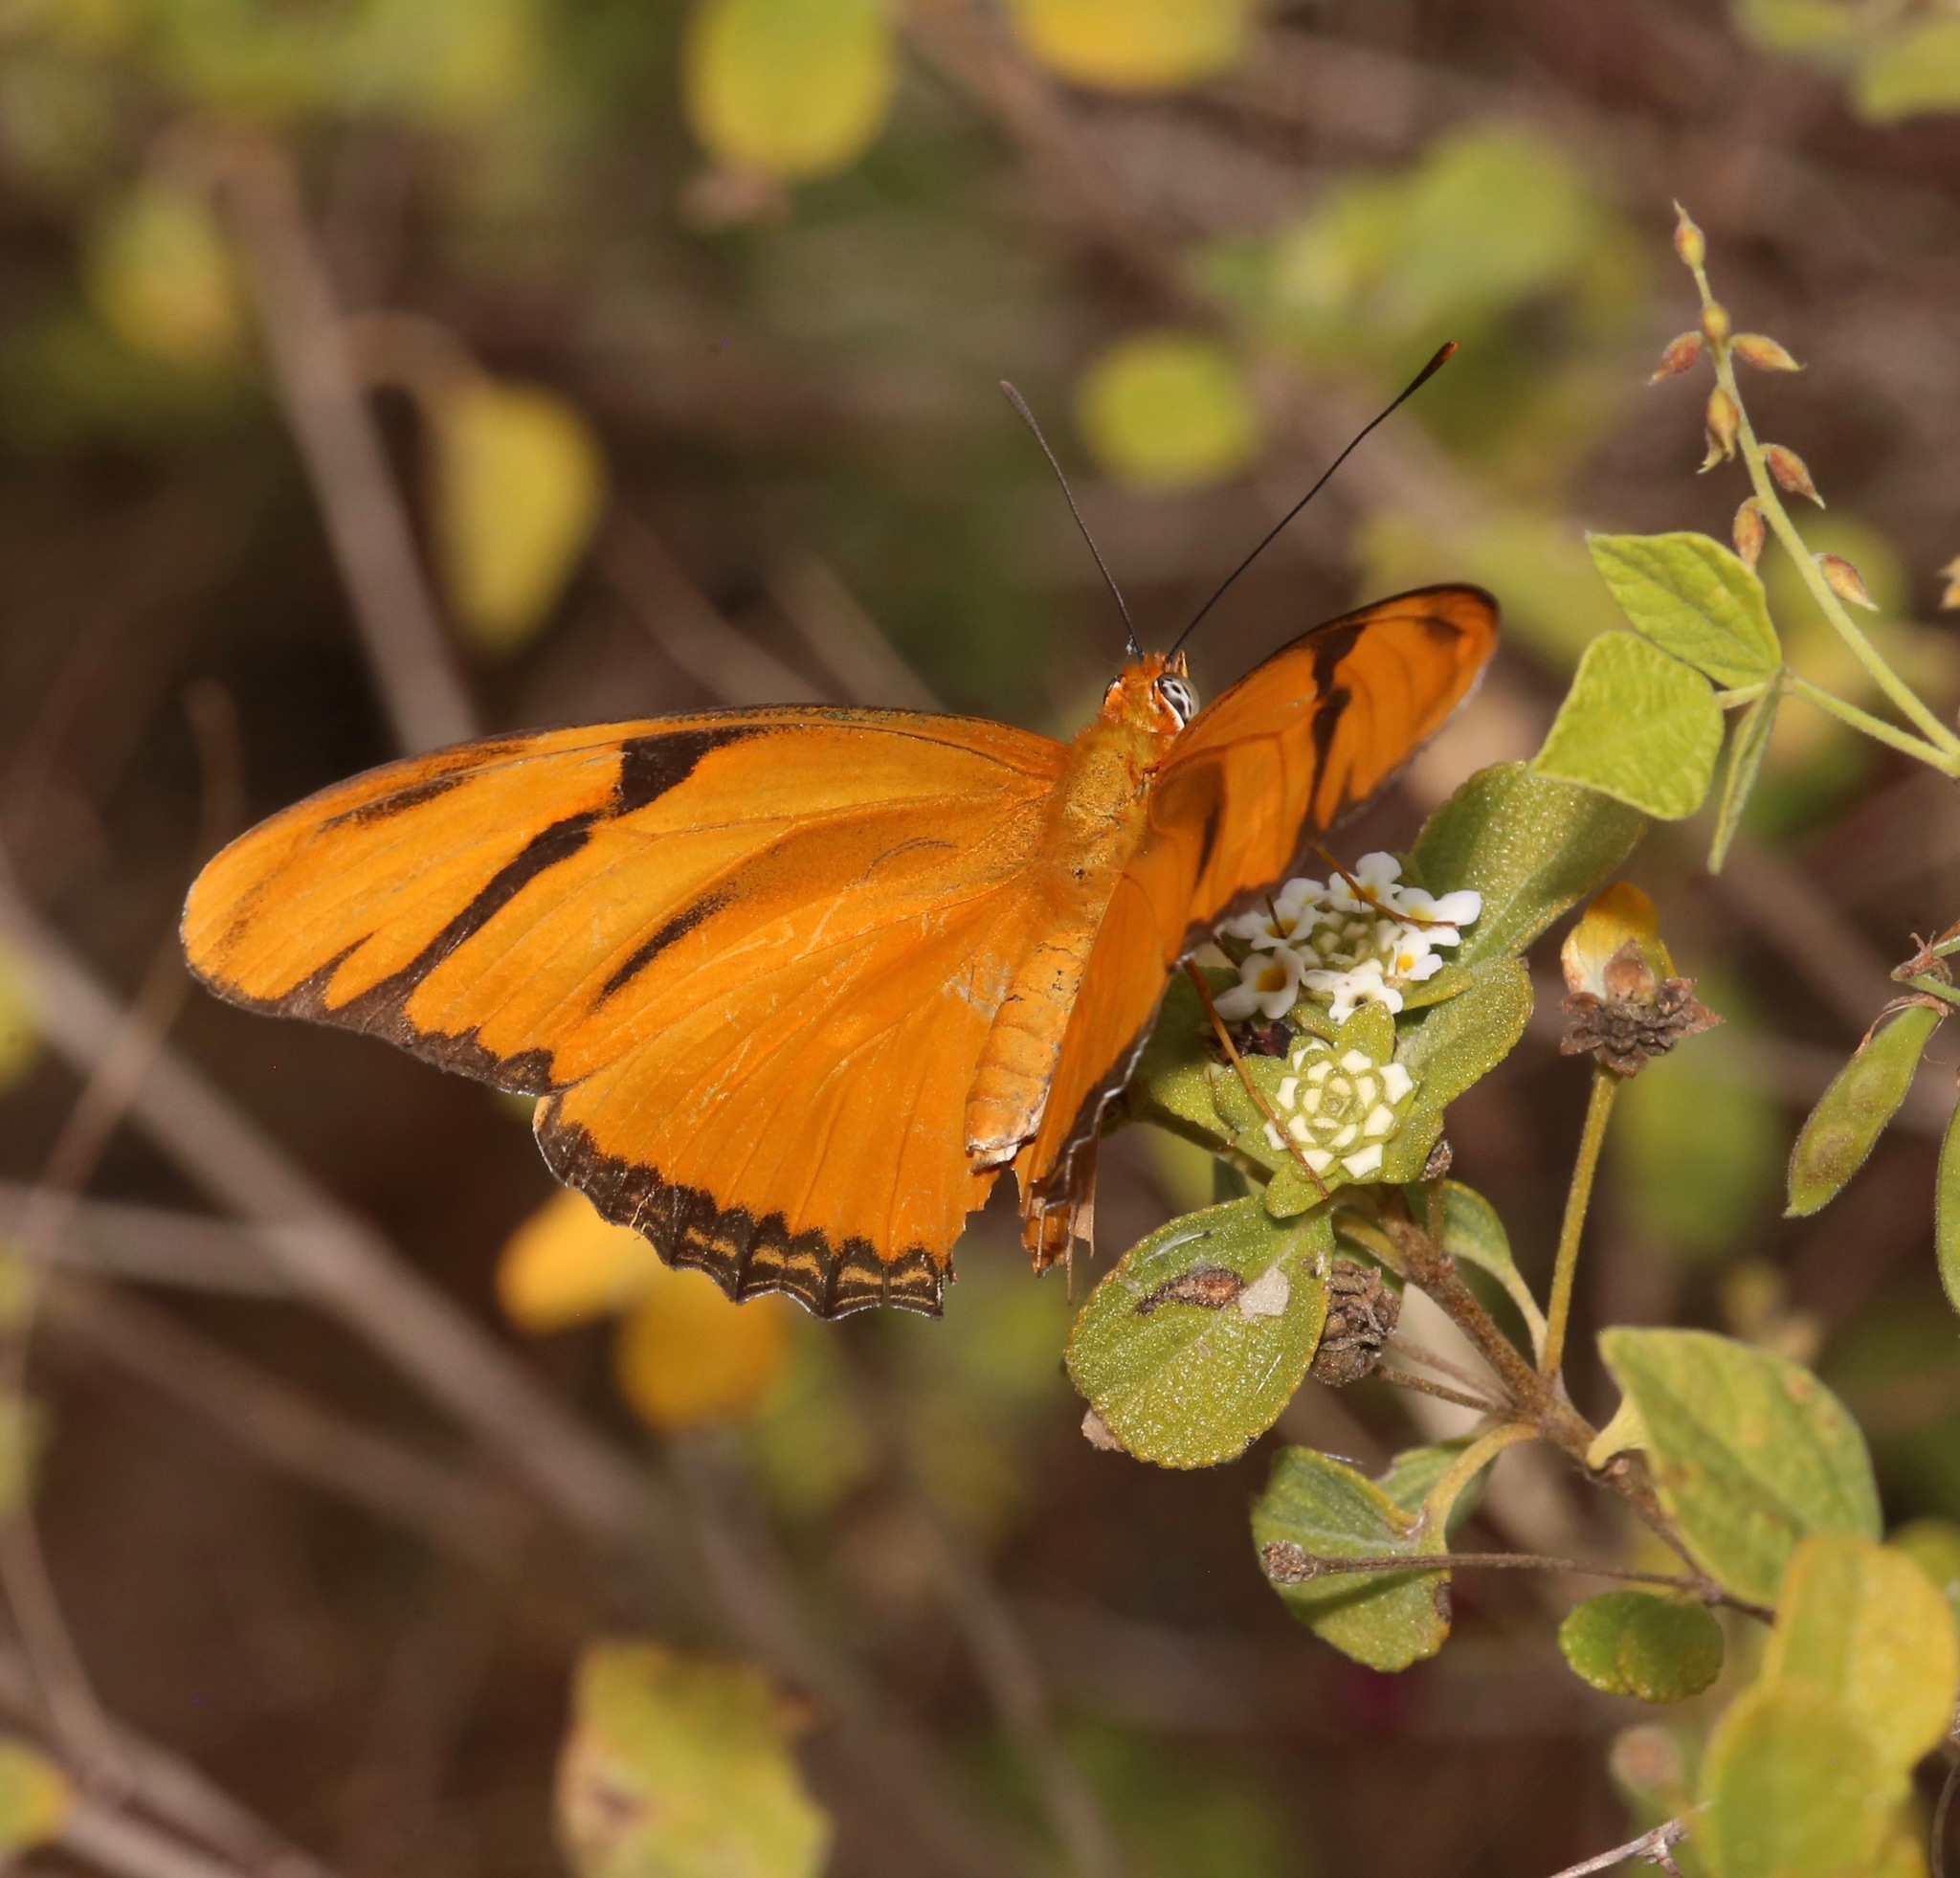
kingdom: Animalia
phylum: Arthropoda
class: Insecta
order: Lepidoptera
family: Nymphalidae
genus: Dryas
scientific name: Dryas iulia
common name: Flambeau
